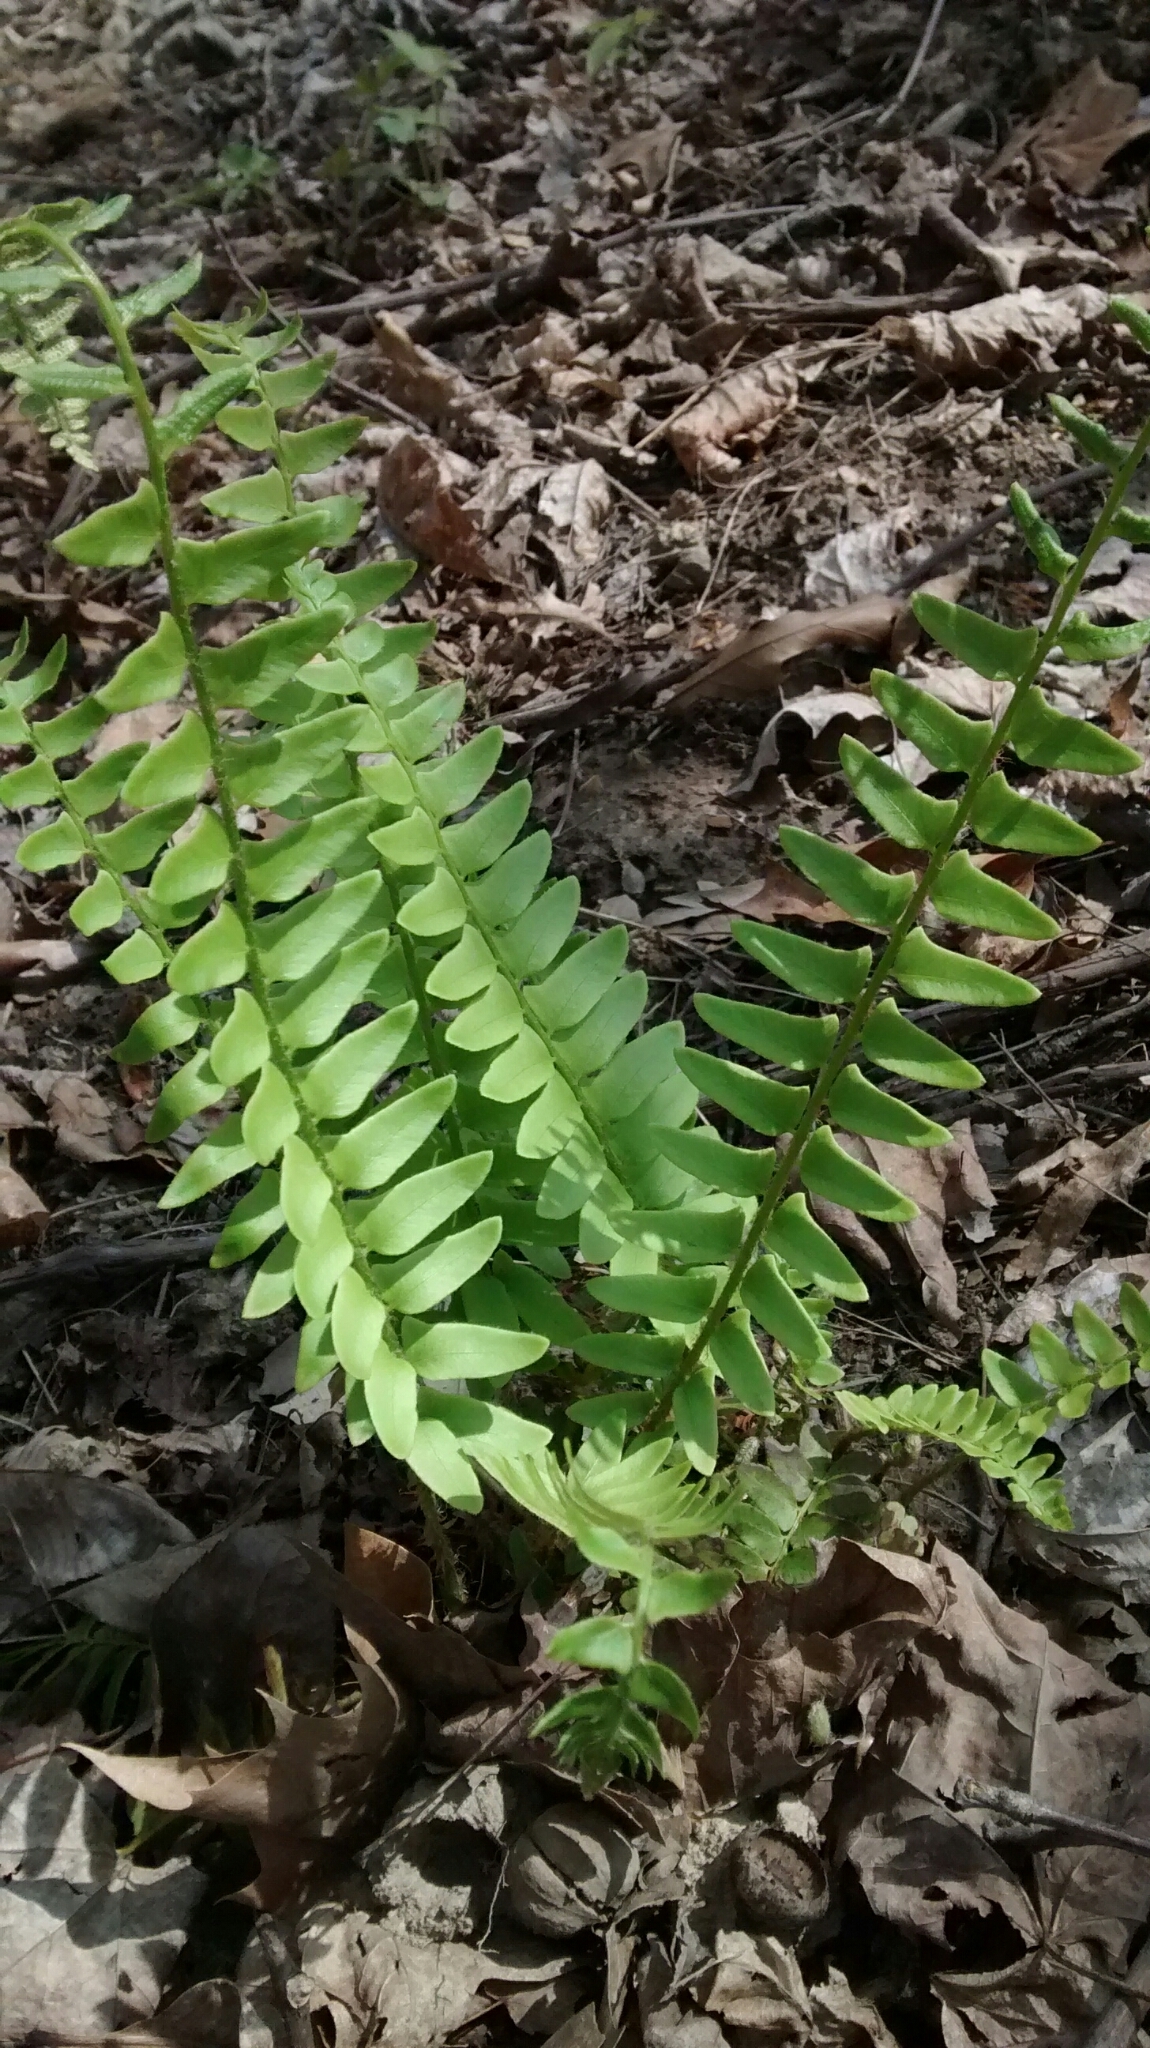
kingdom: Plantae
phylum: Tracheophyta
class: Polypodiopsida
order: Polypodiales
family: Dryopteridaceae
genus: Polystichum
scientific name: Polystichum acrostichoides
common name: Christmas fern
